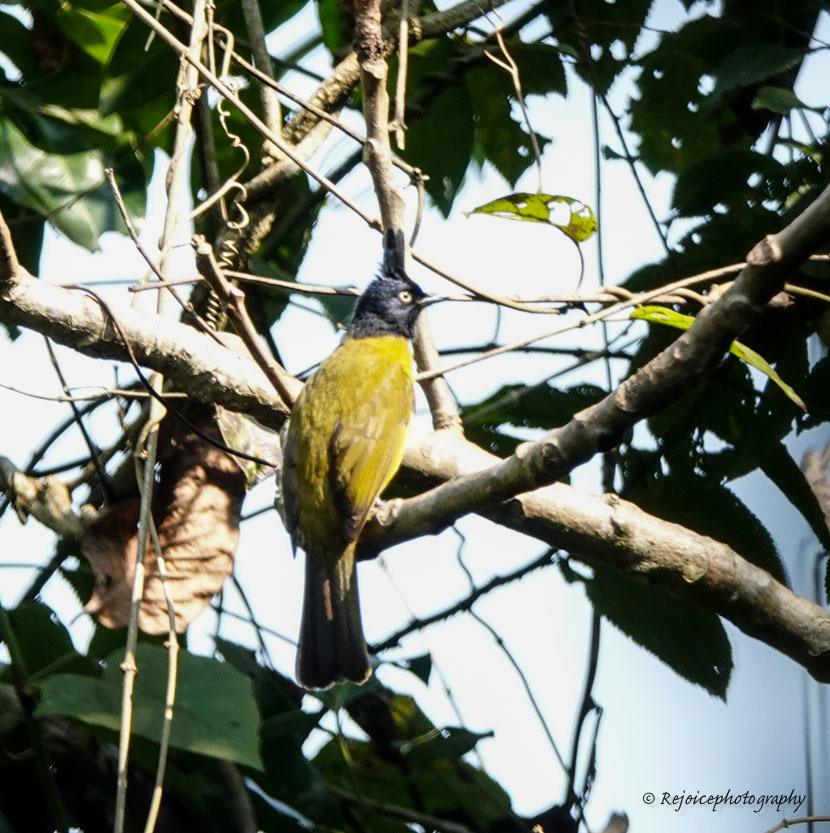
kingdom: Animalia
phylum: Chordata
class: Aves
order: Passeriformes
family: Pycnonotidae
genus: Pycnonotus
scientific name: Pycnonotus flaviventris
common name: Black-crested bulbul
